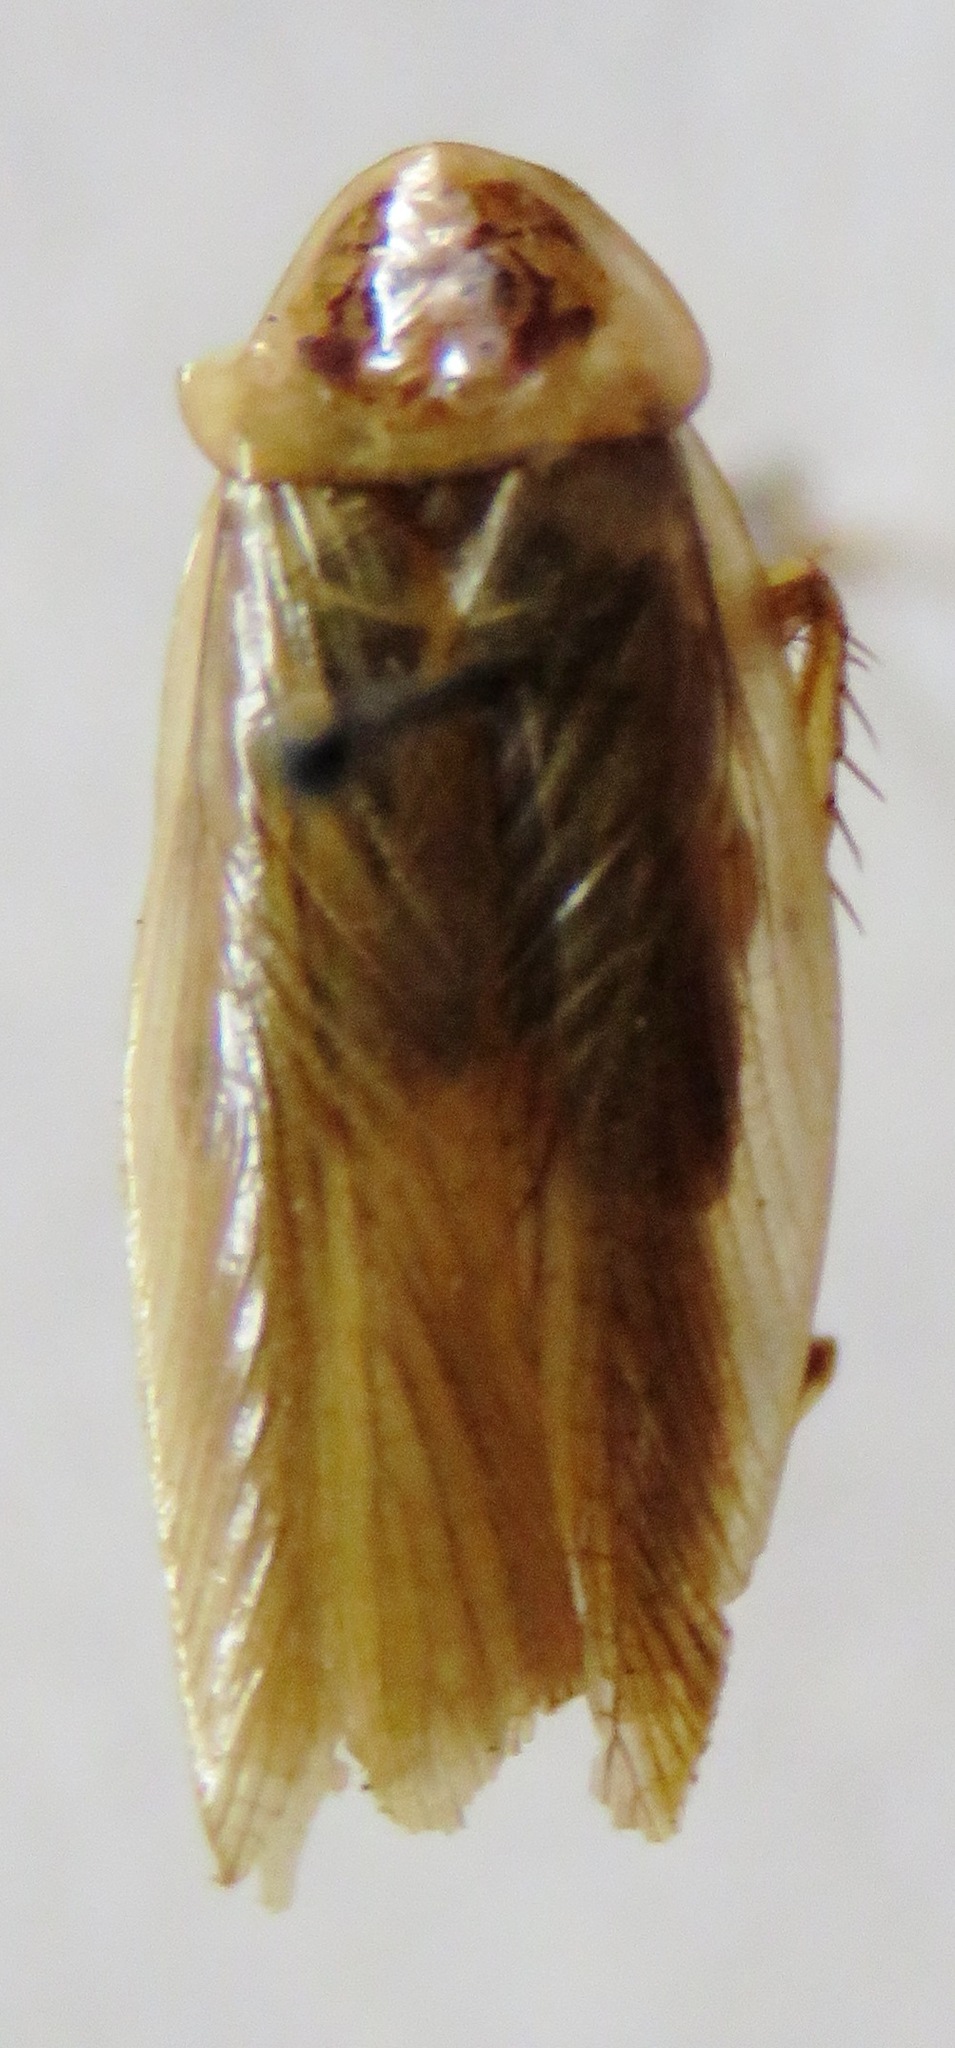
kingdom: Animalia
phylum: Arthropoda
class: Insecta
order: Blattodea
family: Ectobiidae
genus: Latiblattella
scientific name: Latiblattella angustifrons
